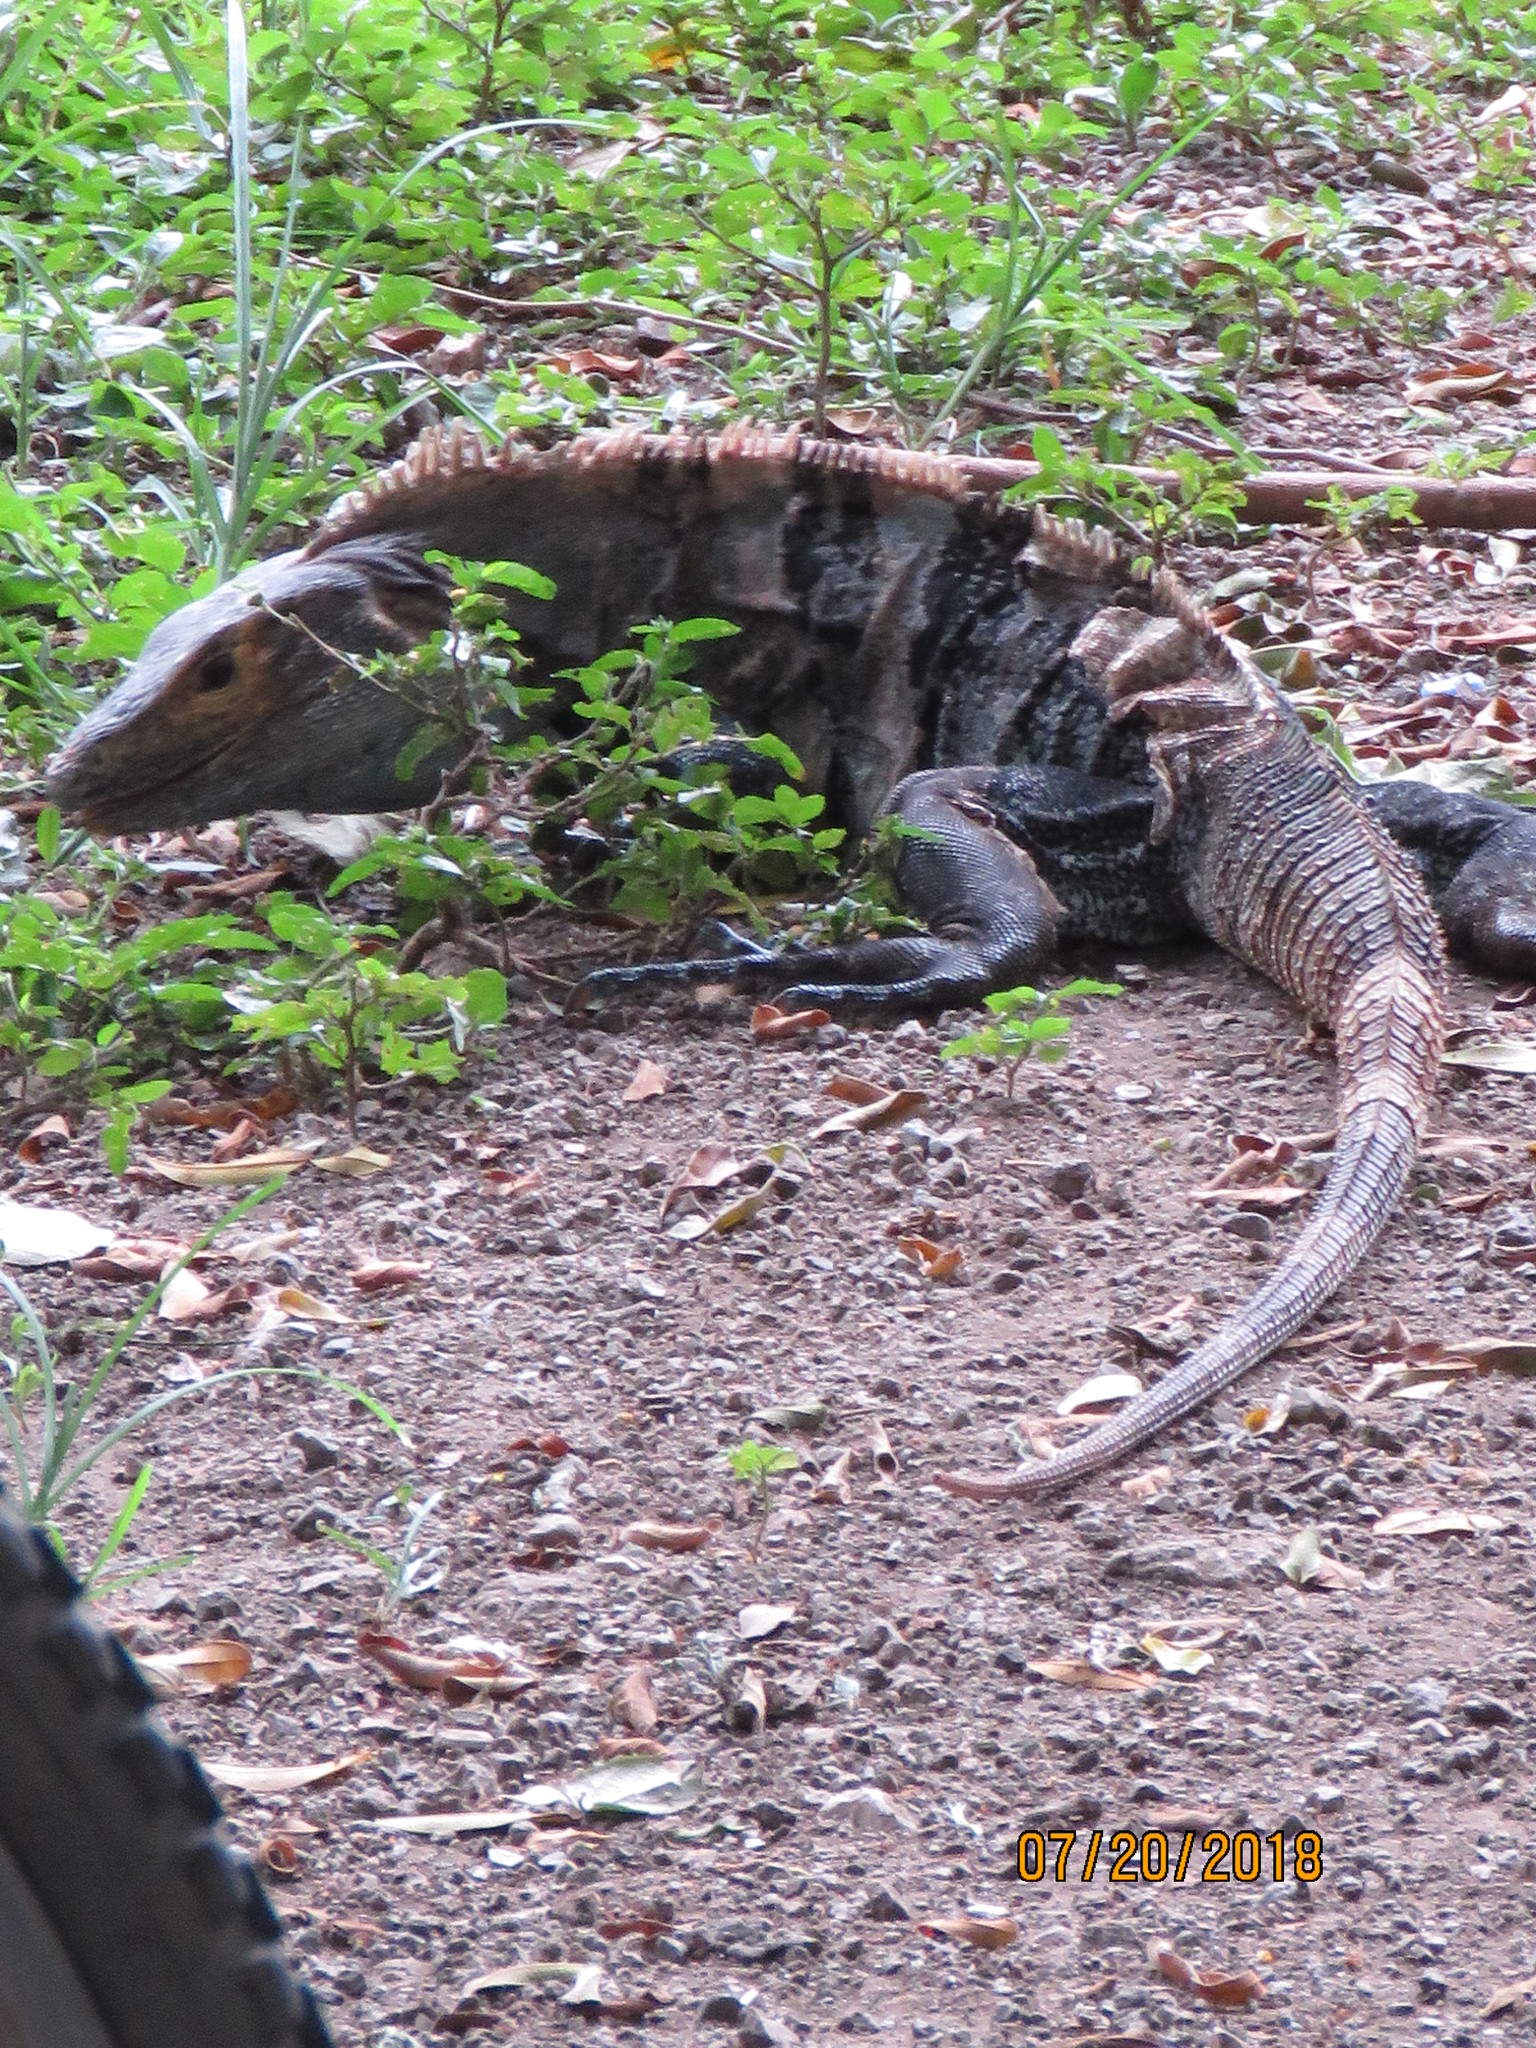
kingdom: Animalia
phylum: Chordata
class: Squamata
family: Iguanidae
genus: Ctenosaura
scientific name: Ctenosaura similis
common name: Black spiny-tailed iguana
